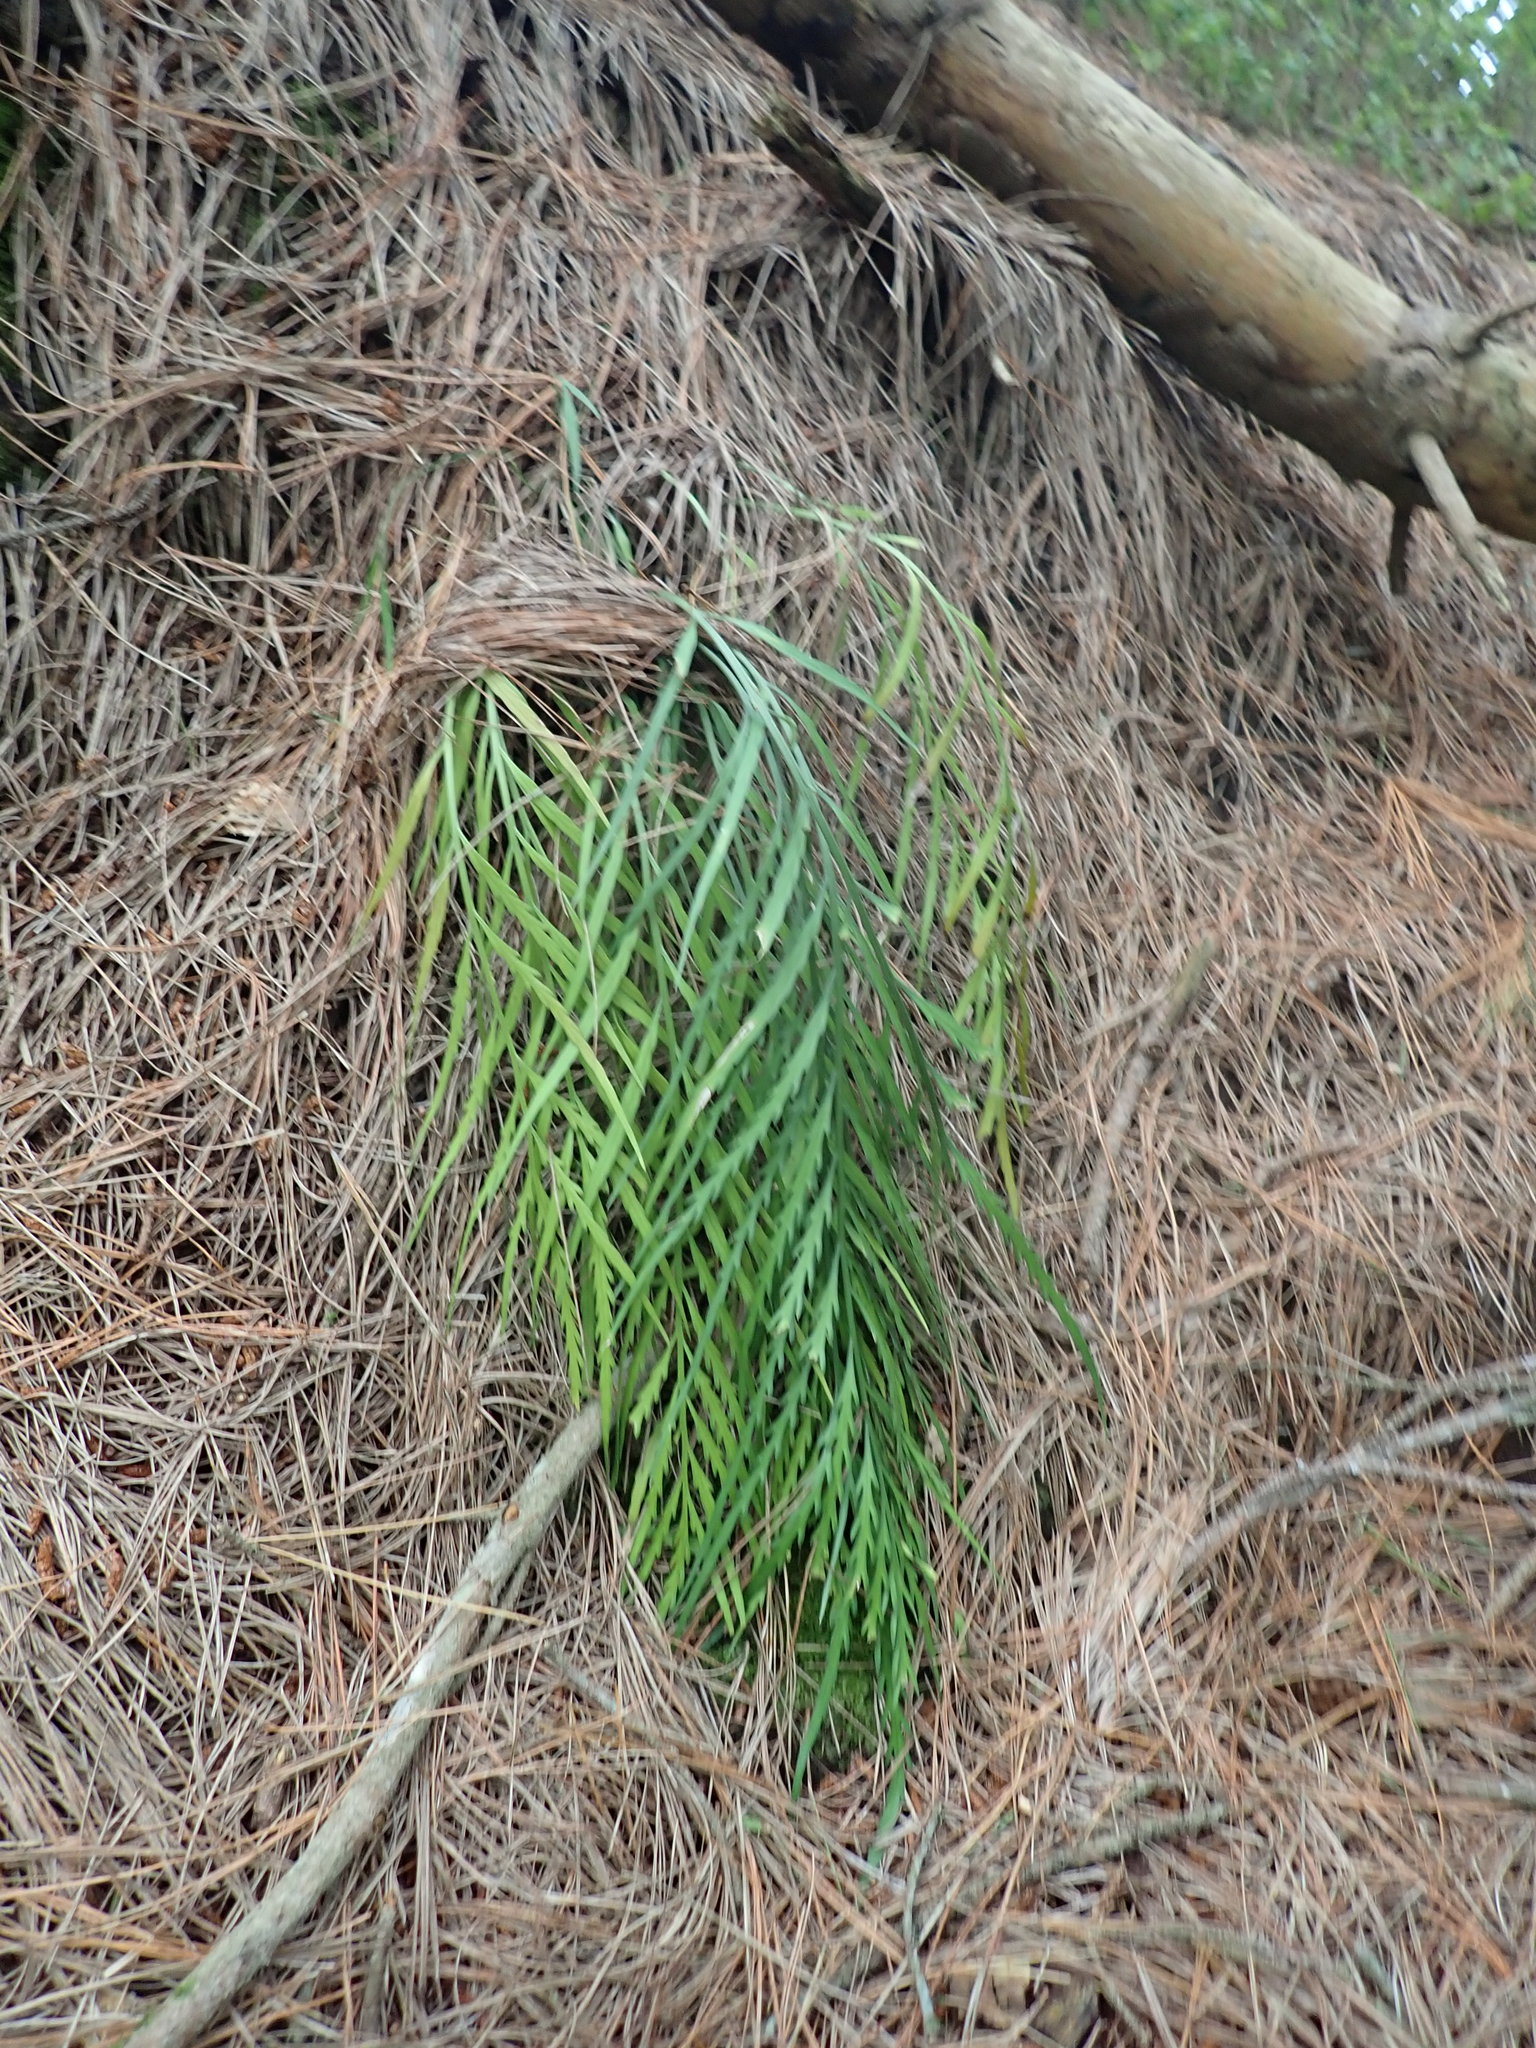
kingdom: Plantae
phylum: Tracheophyta
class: Polypodiopsida
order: Polypodiales
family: Aspleniaceae
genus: Asplenium
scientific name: Asplenium flaccidum
